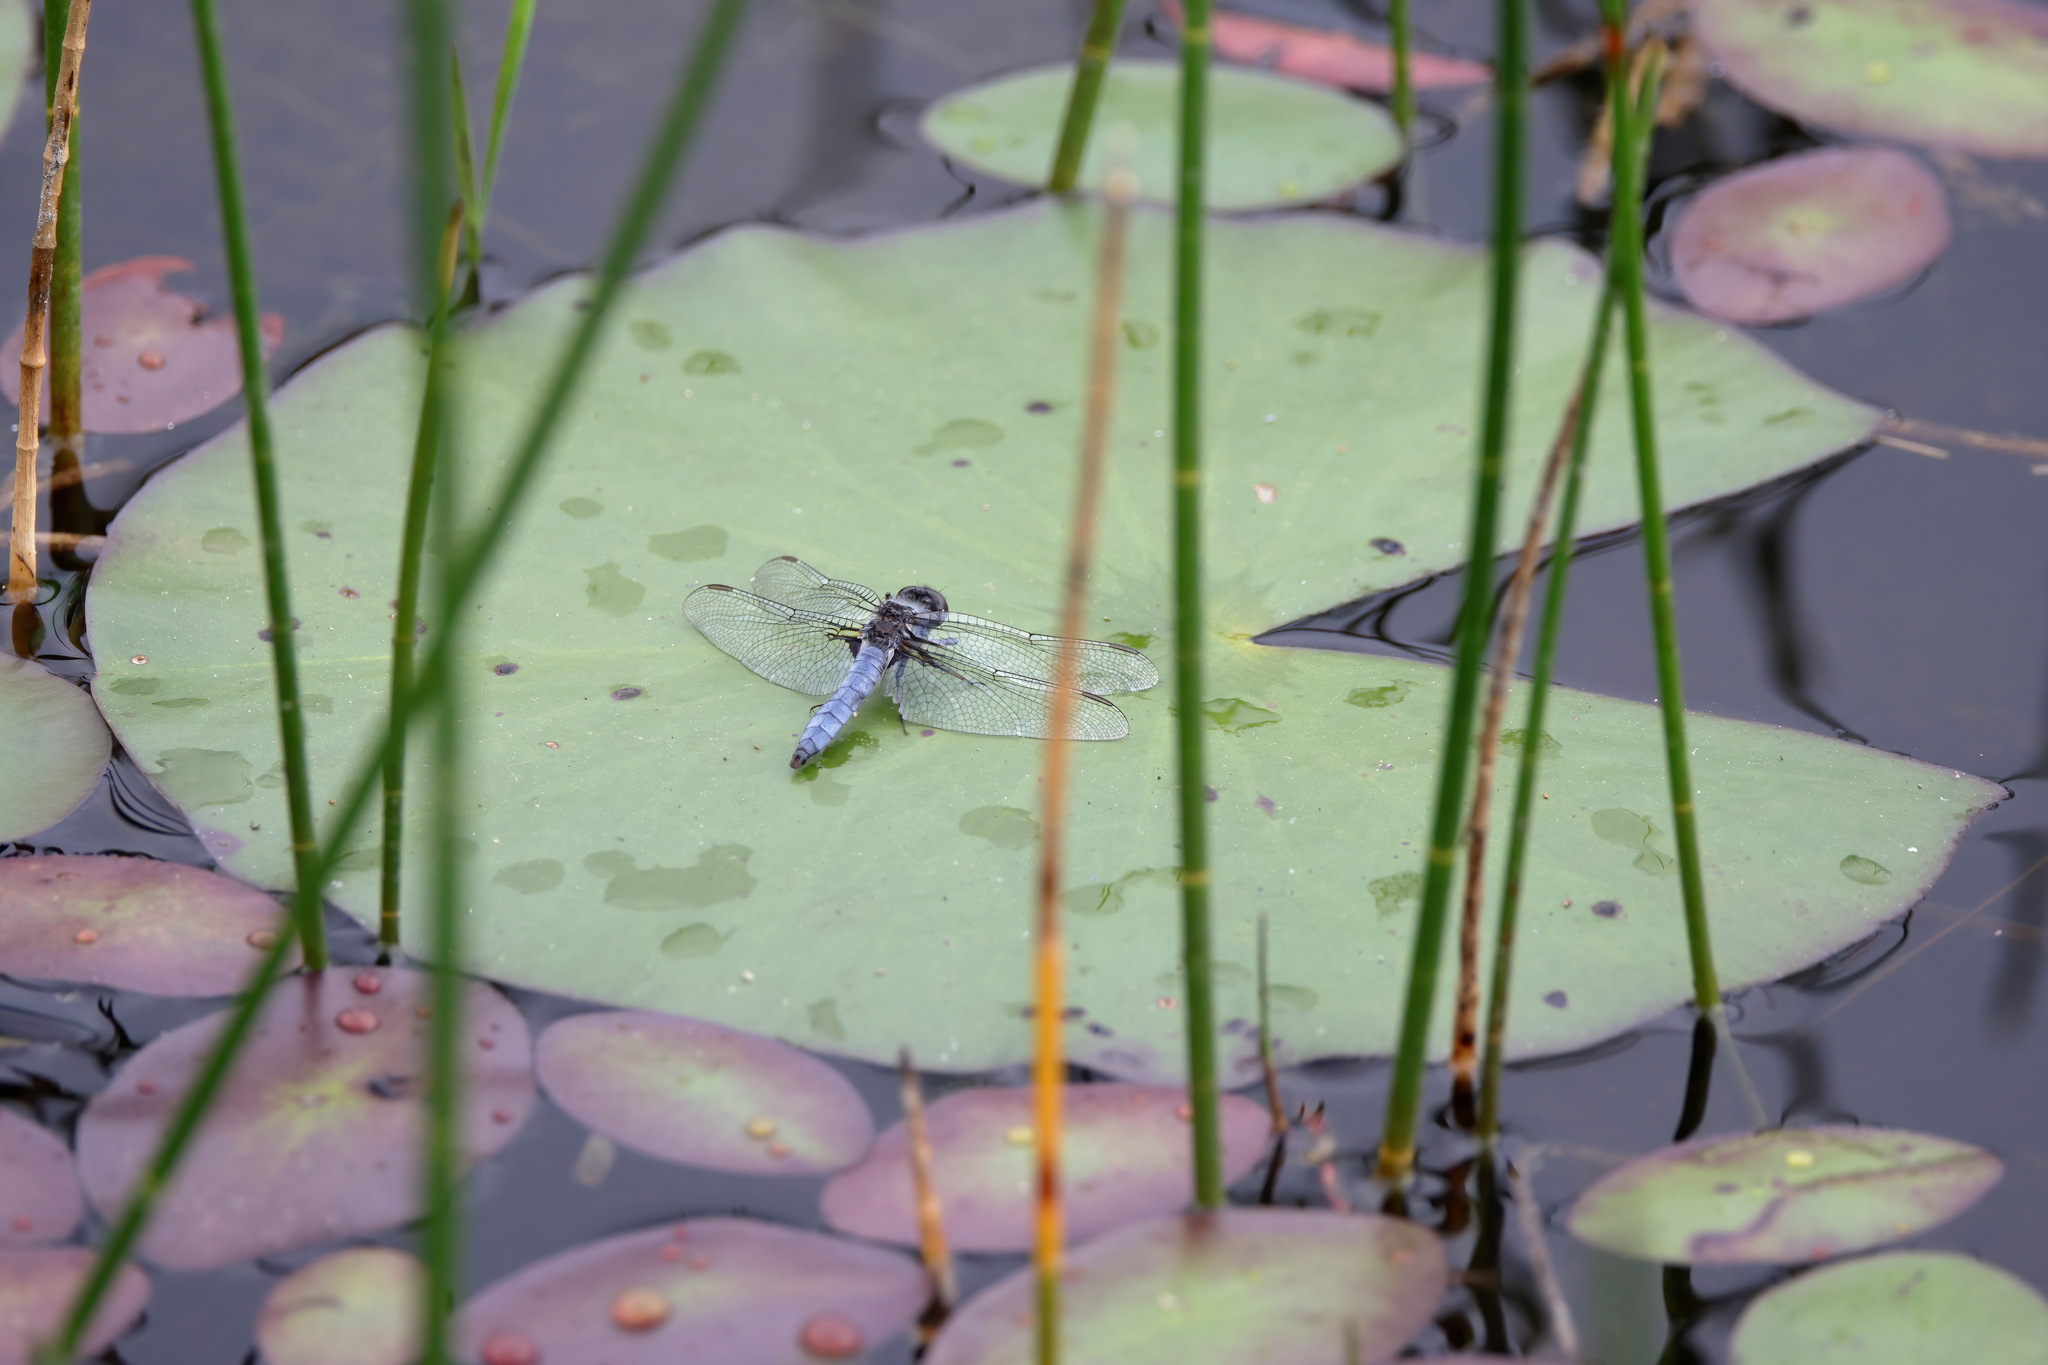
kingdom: Animalia
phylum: Arthropoda
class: Insecta
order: Odonata
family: Libellulidae
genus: Ladona
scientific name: Ladona deplanata
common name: Blue corporal
